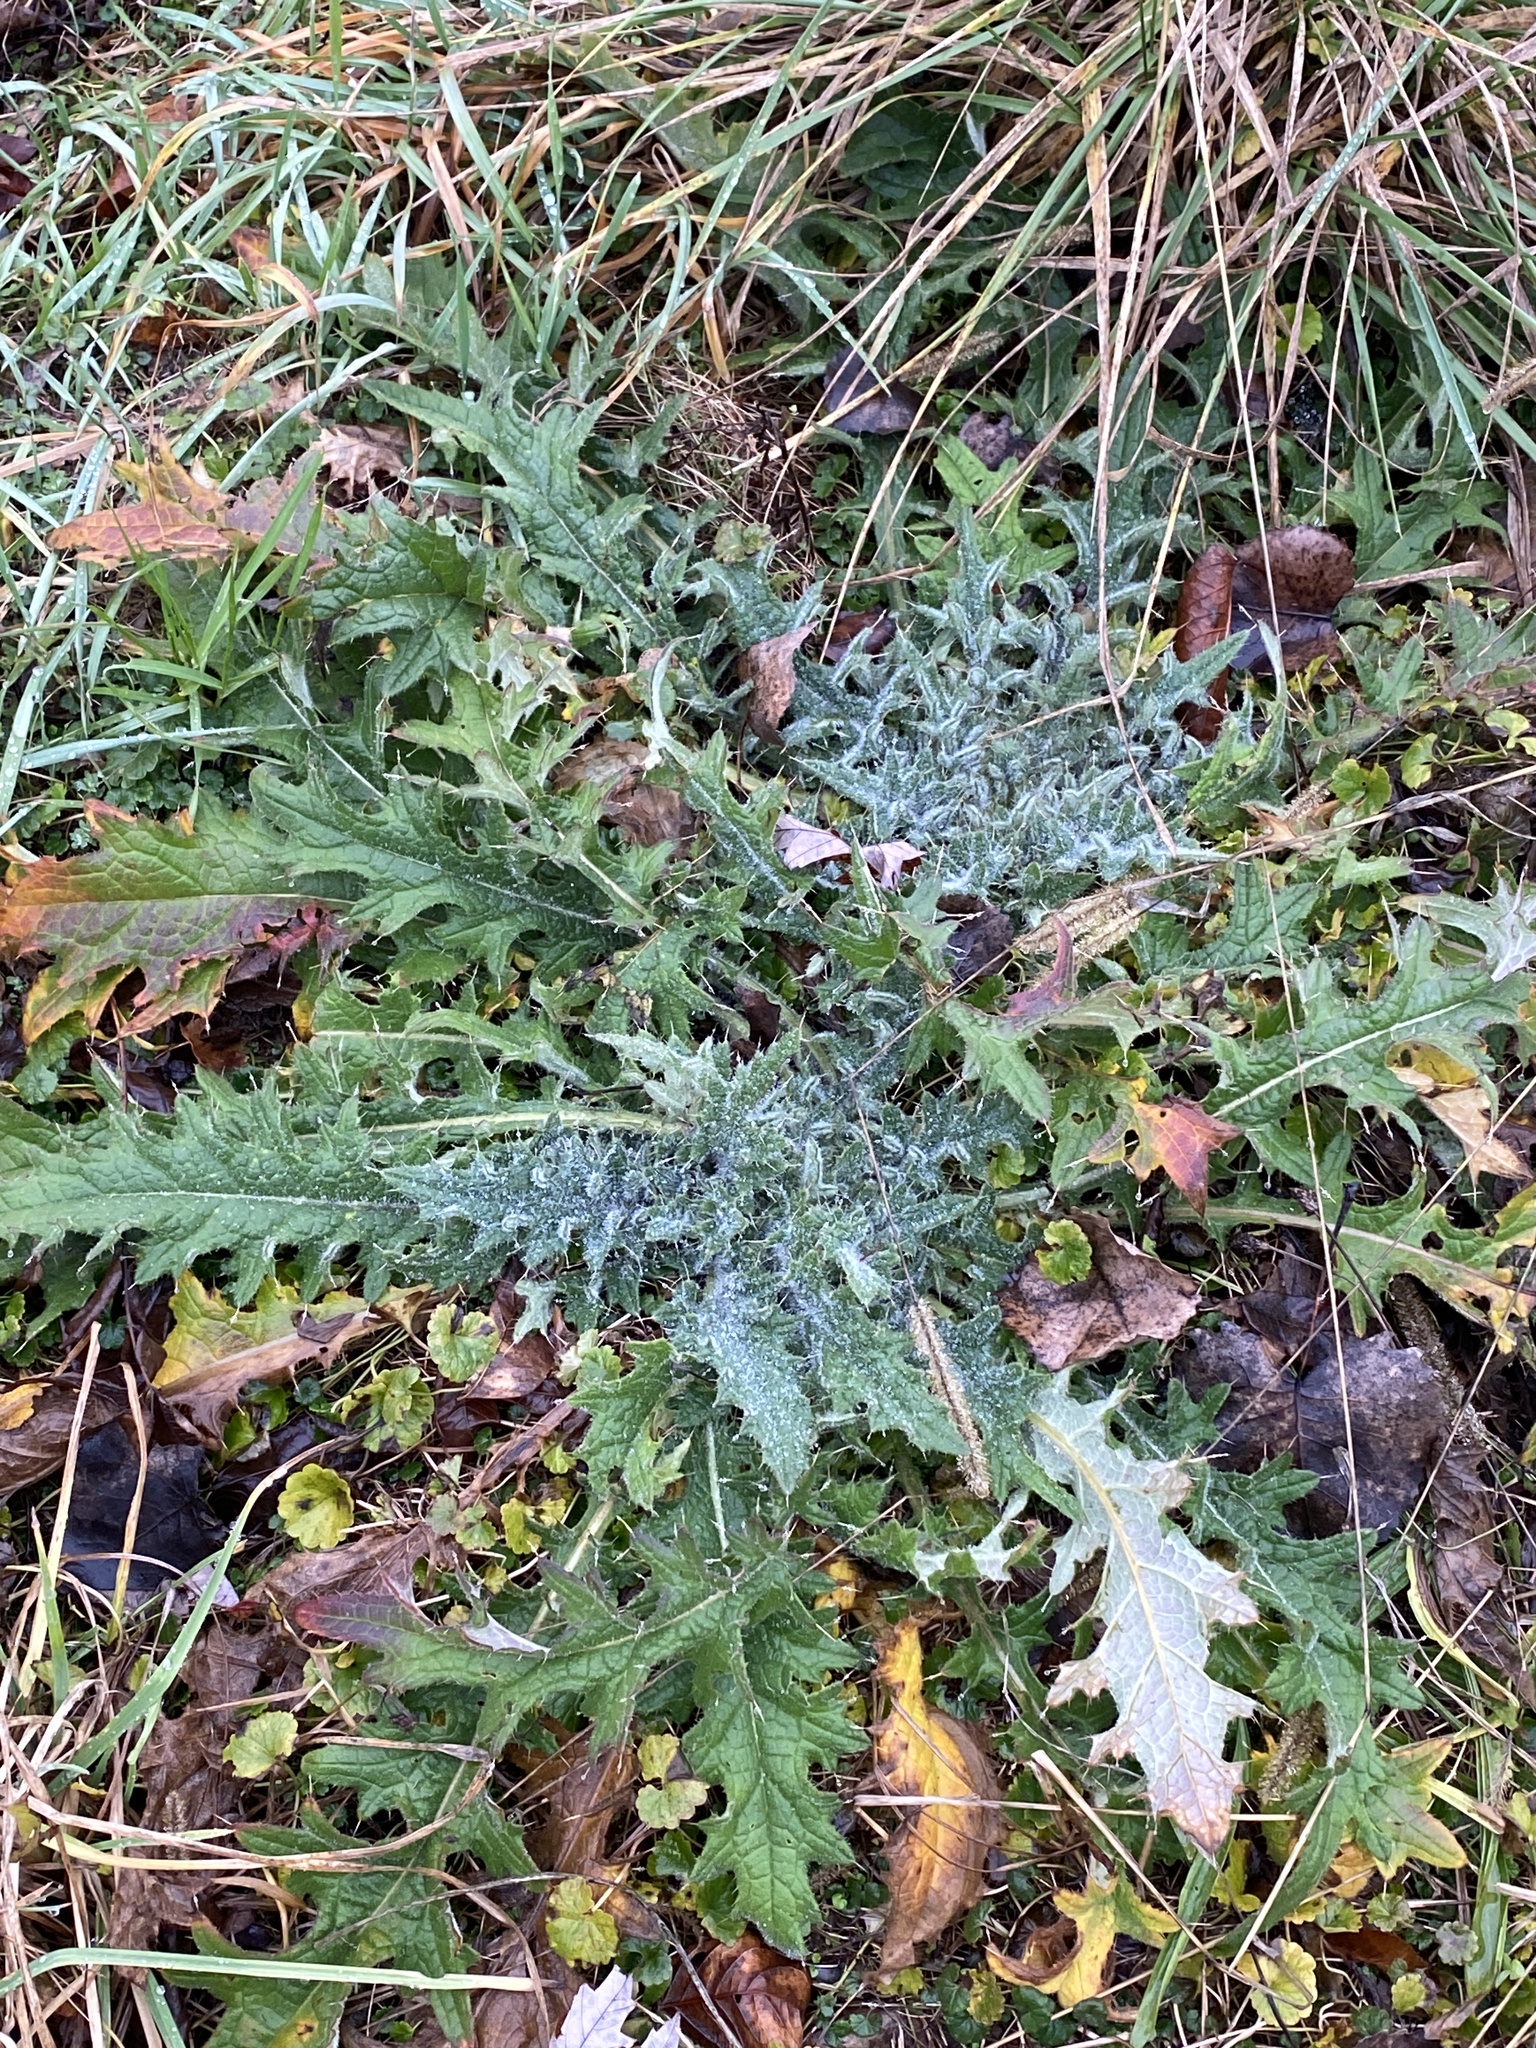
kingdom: Plantae
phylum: Tracheophyta
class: Magnoliopsida
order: Asterales
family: Asteraceae
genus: Cirsium
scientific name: Cirsium vulgare
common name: Bull thistle
